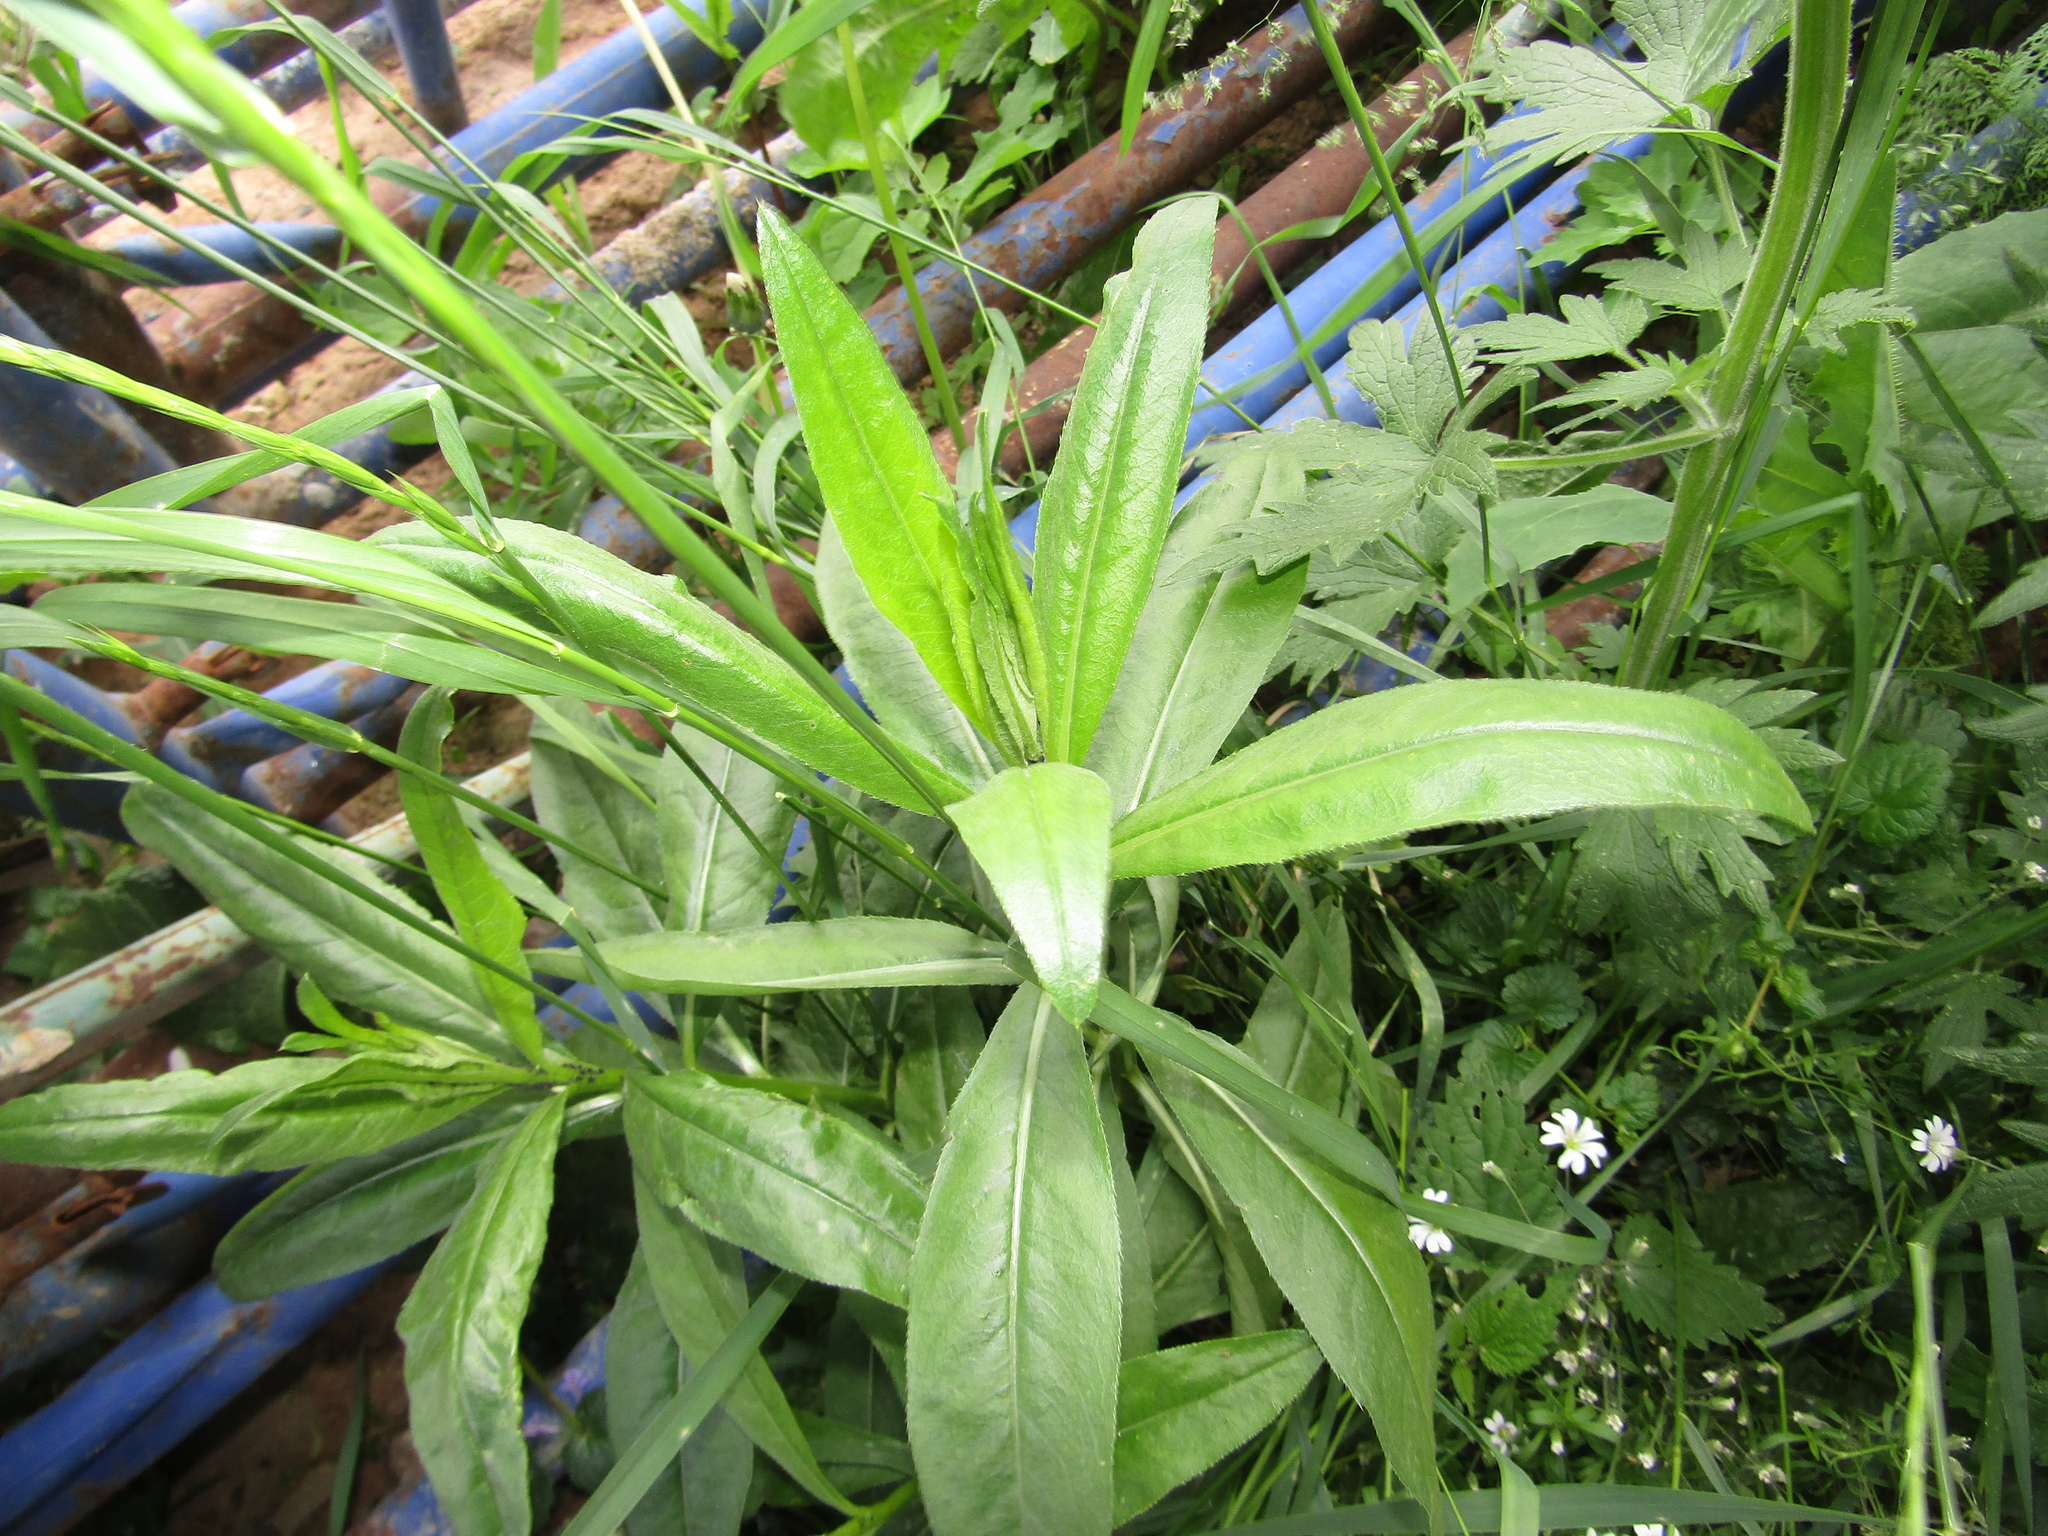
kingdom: Plantae
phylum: Tracheophyta
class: Magnoliopsida
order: Asterales
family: Asteraceae
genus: Cirsium
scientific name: Cirsium arvense
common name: Creeping thistle
